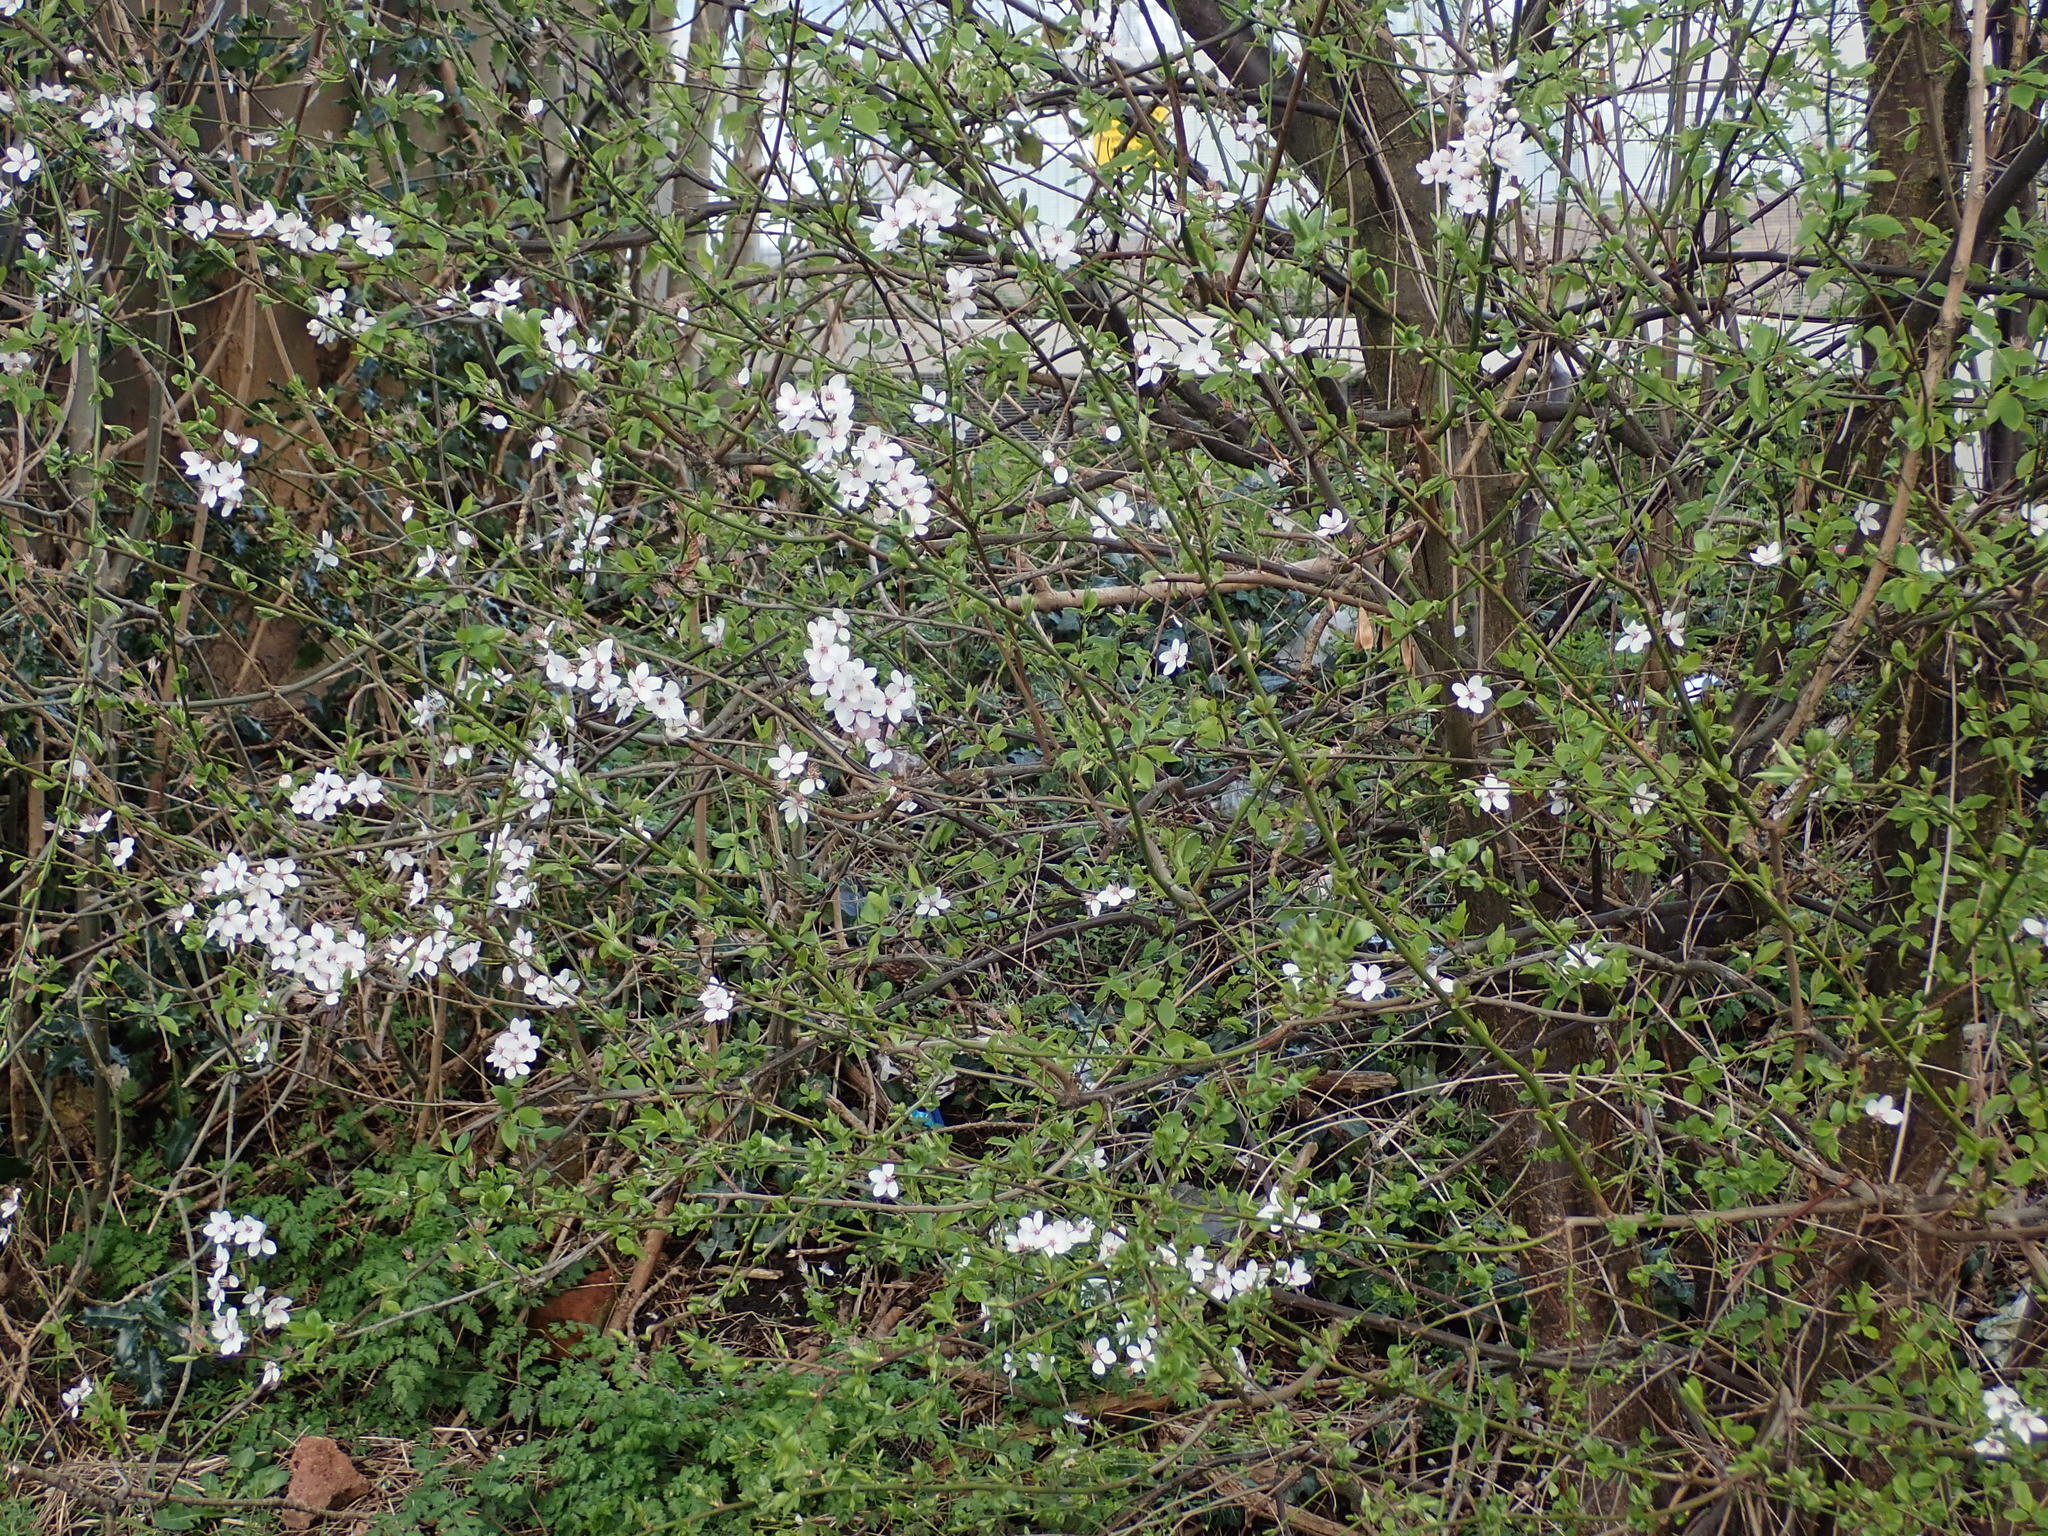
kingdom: Plantae
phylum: Tracheophyta
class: Magnoliopsida
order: Rosales
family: Rosaceae
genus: Prunus
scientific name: Prunus cerasifera
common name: Cherry plum
